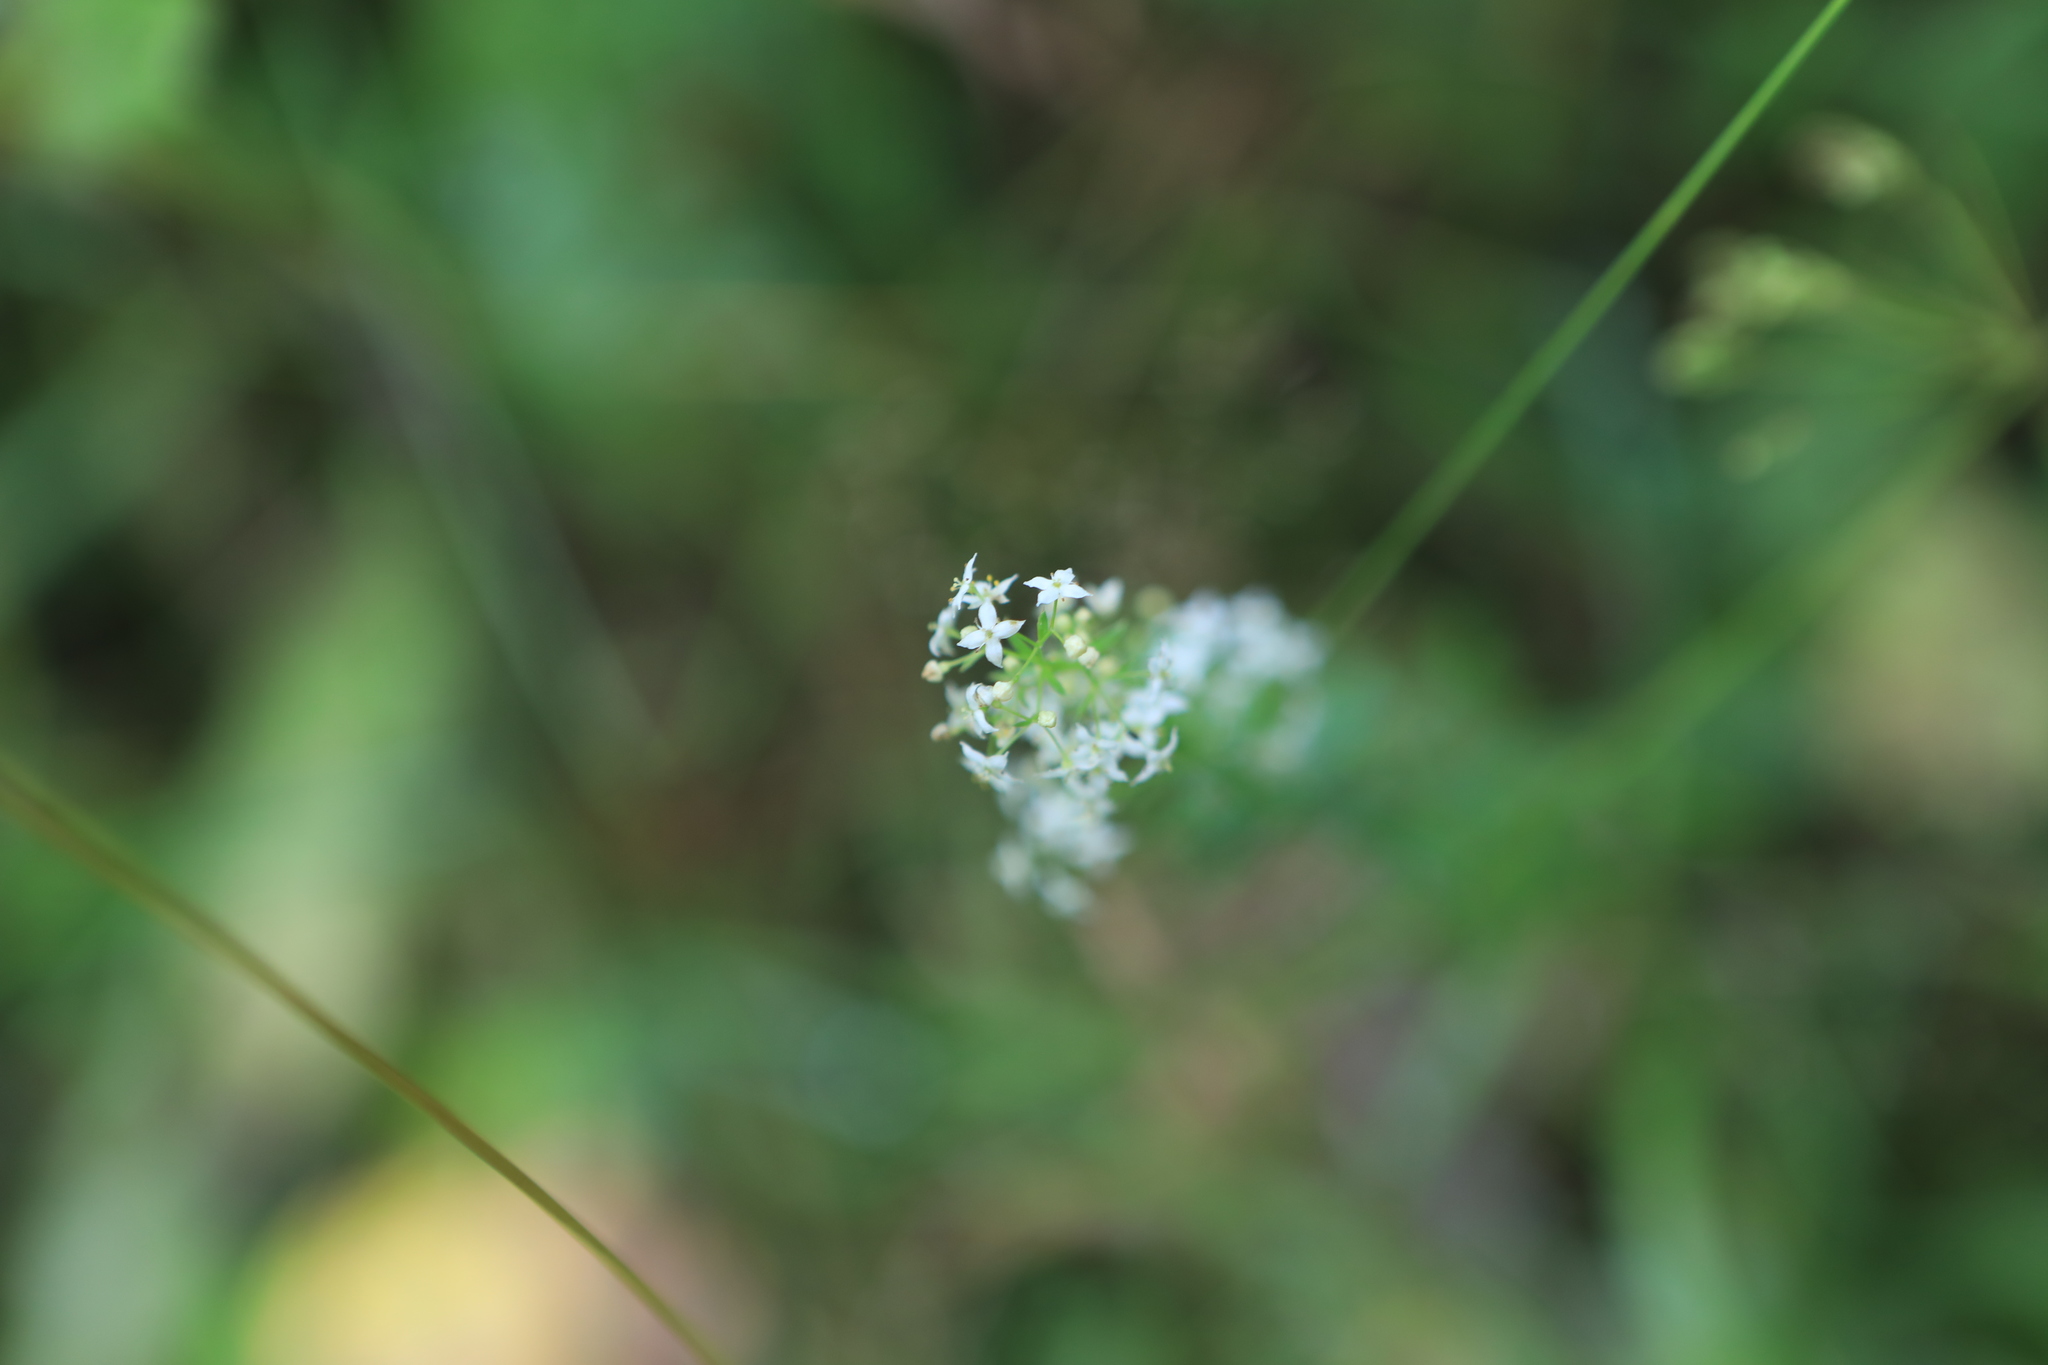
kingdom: Plantae
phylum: Tracheophyta
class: Magnoliopsida
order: Gentianales
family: Rubiaceae
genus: Galium
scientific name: Galium mollugo
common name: Hedge bedstraw
